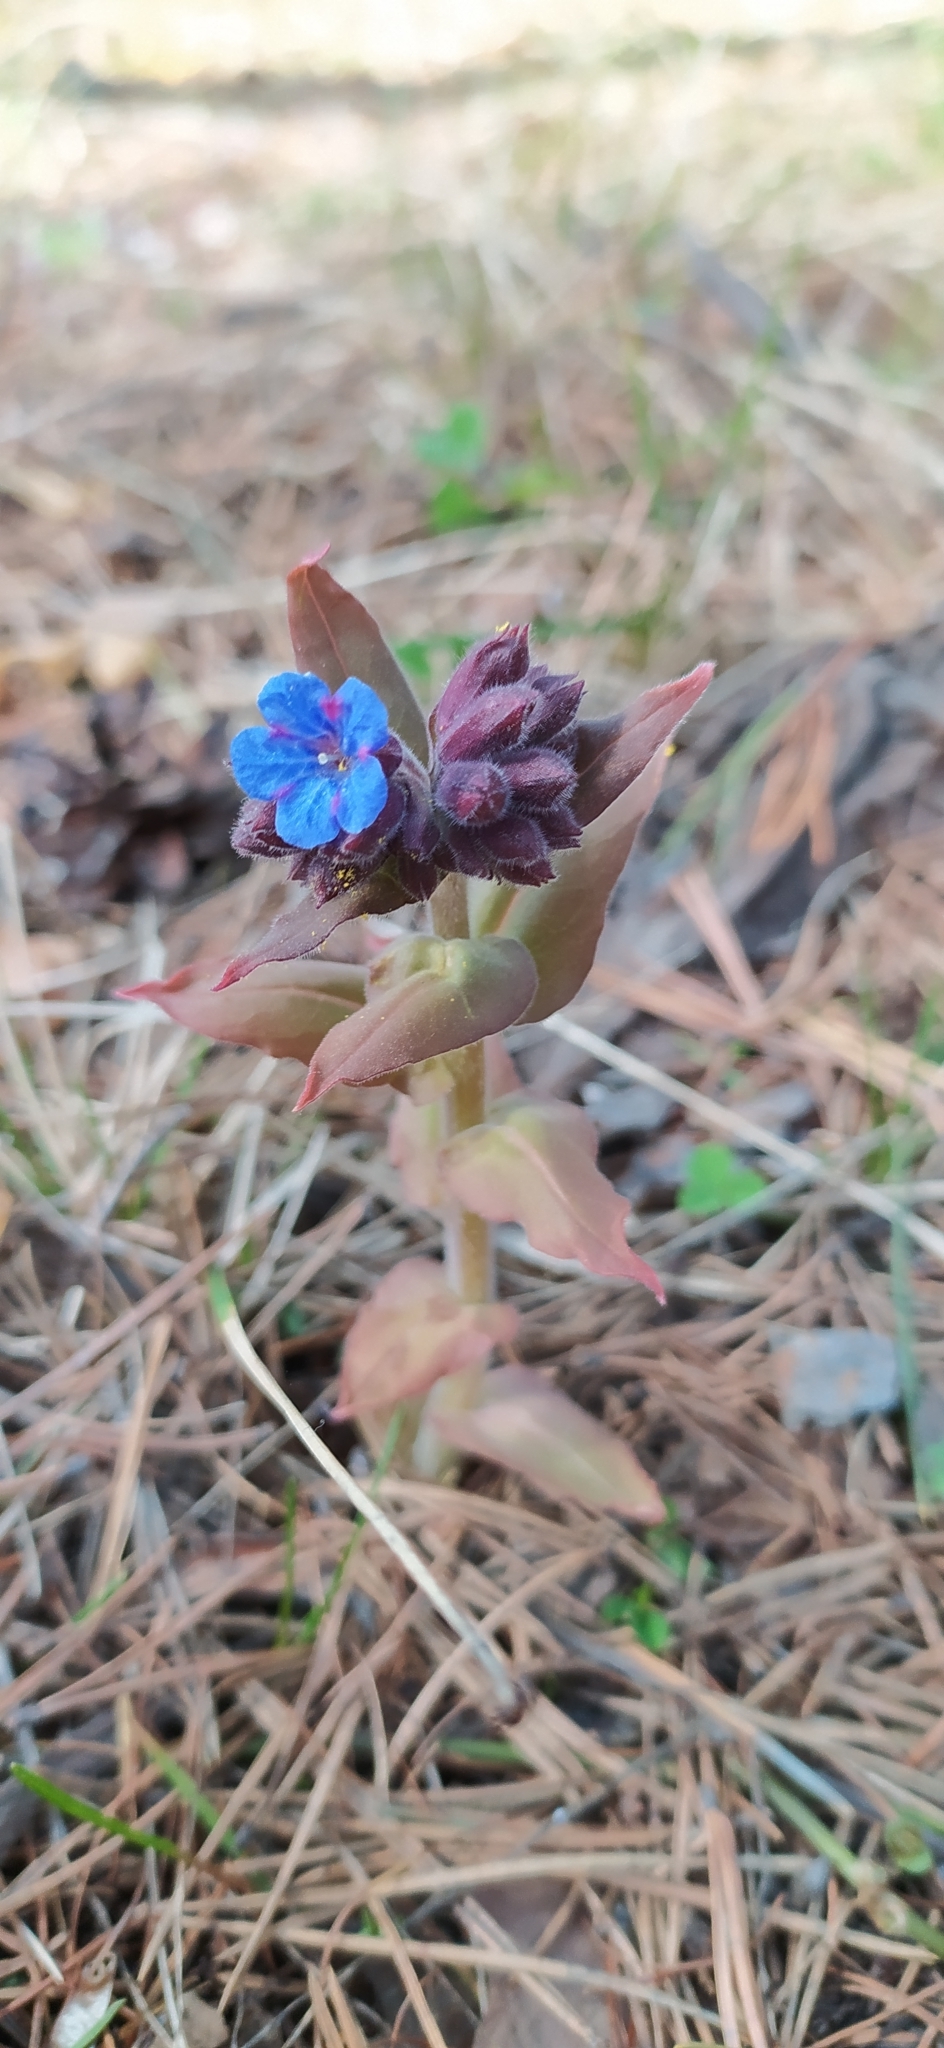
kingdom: Plantae
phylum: Tracheophyta
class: Magnoliopsida
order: Boraginales
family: Boraginaceae
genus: Pulmonaria
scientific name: Pulmonaria mollis
